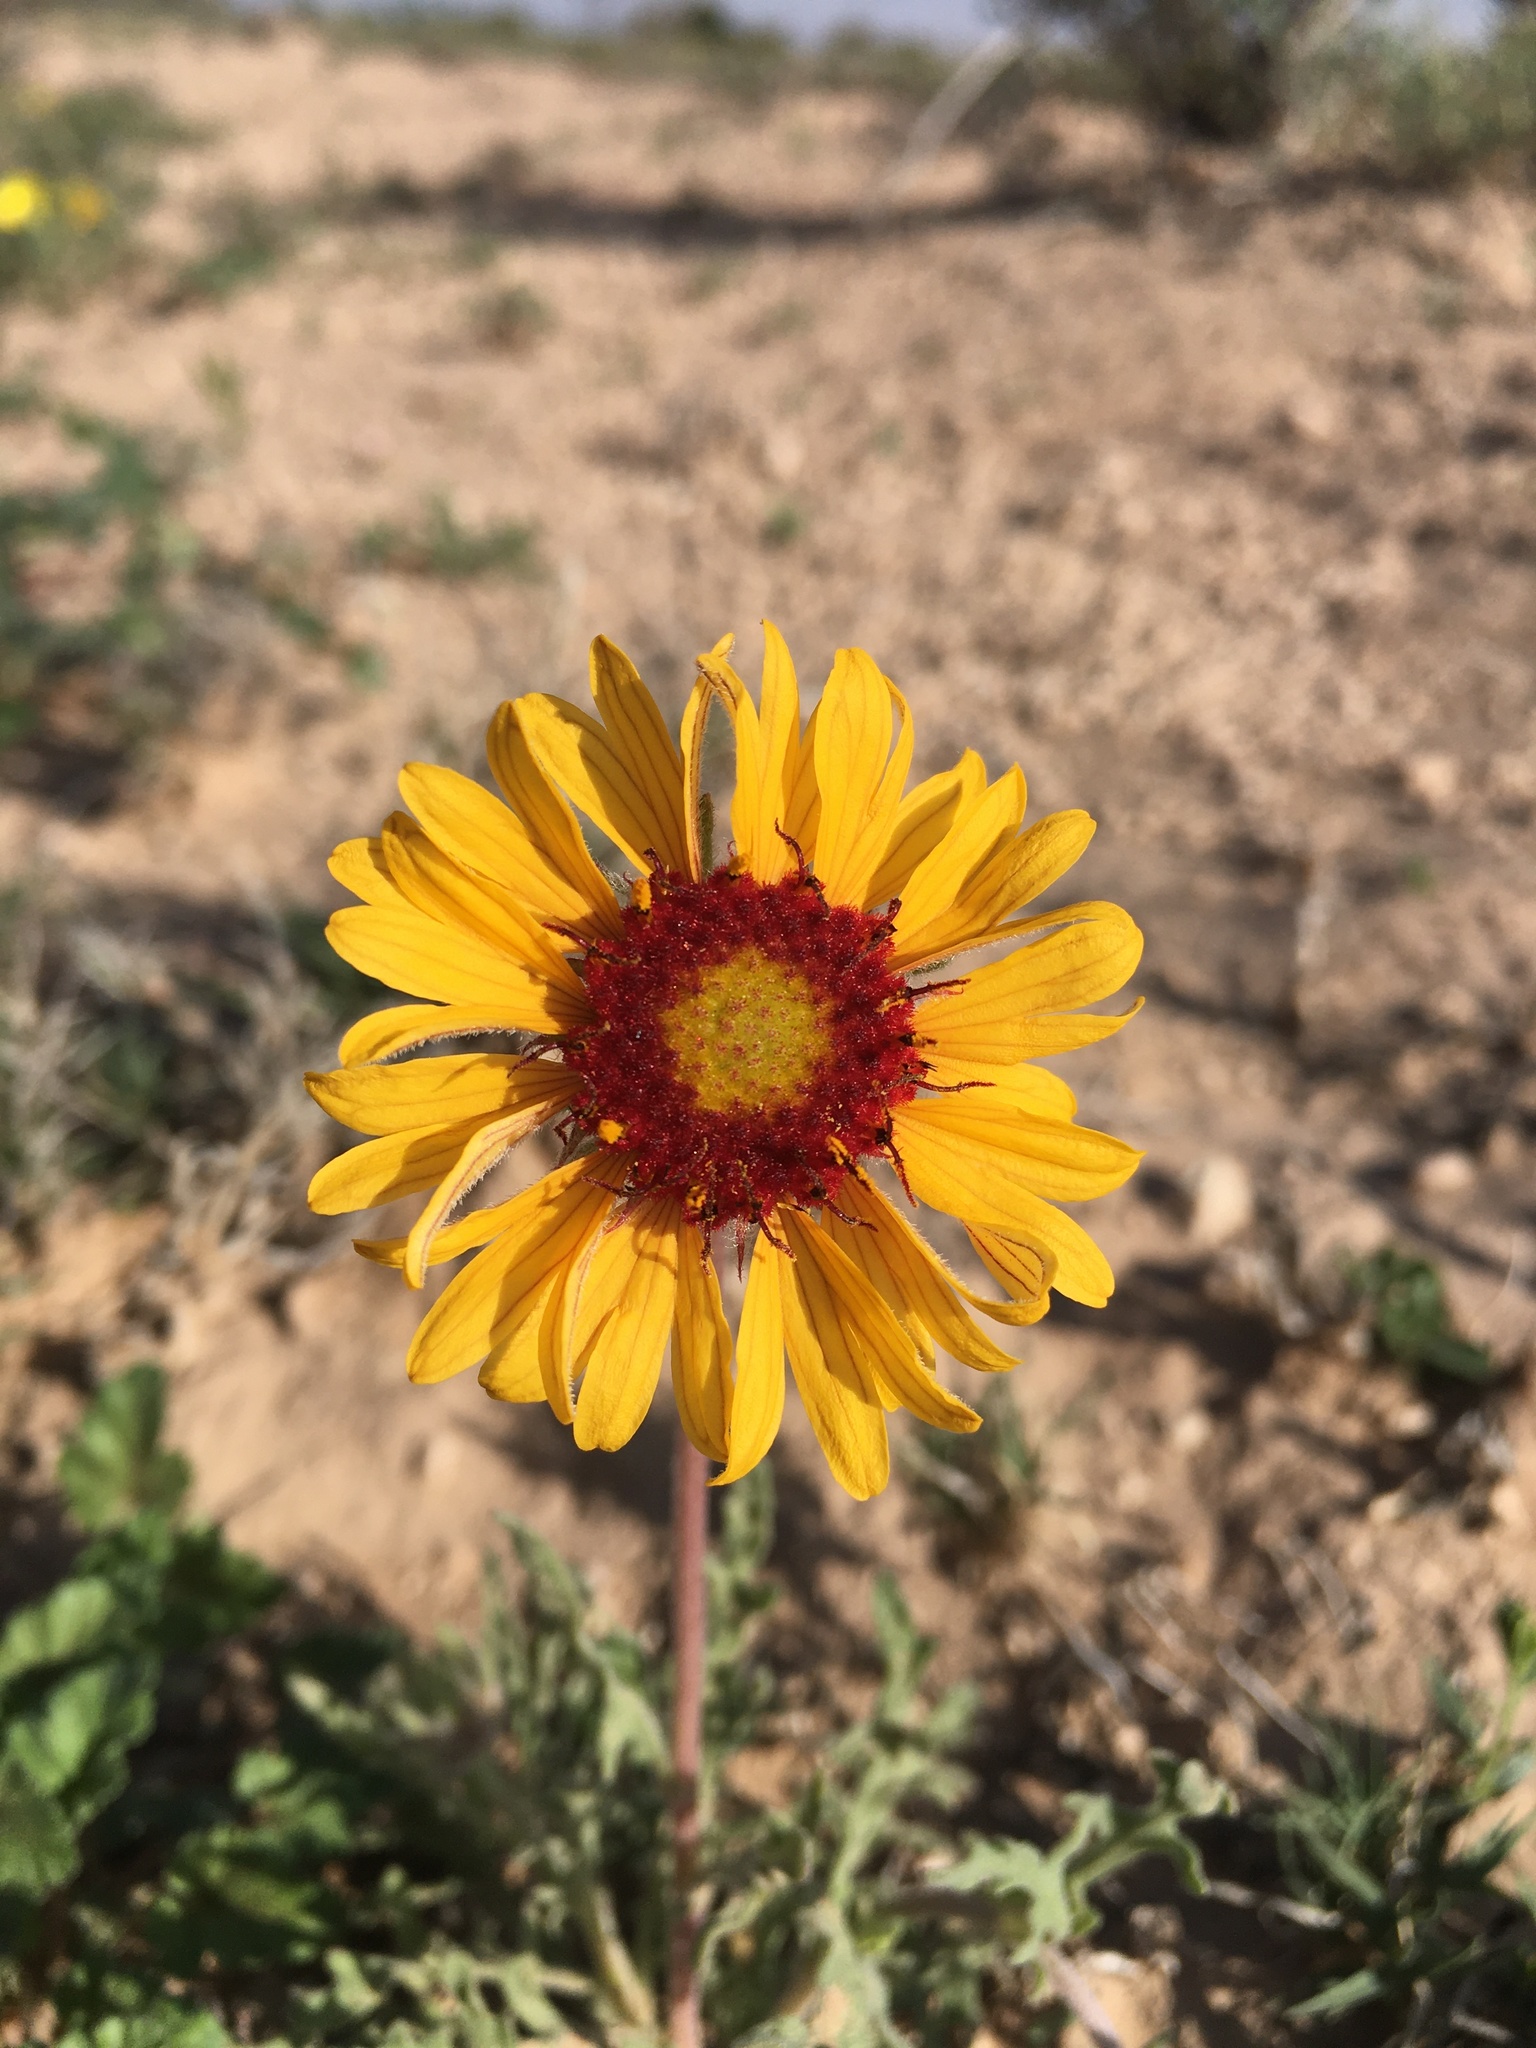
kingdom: Plantae
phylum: Tracheophyta
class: Magnoliopsida
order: Asterales
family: Asteraceae
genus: Gaillardia
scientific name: Gaillardia pinnatifida
